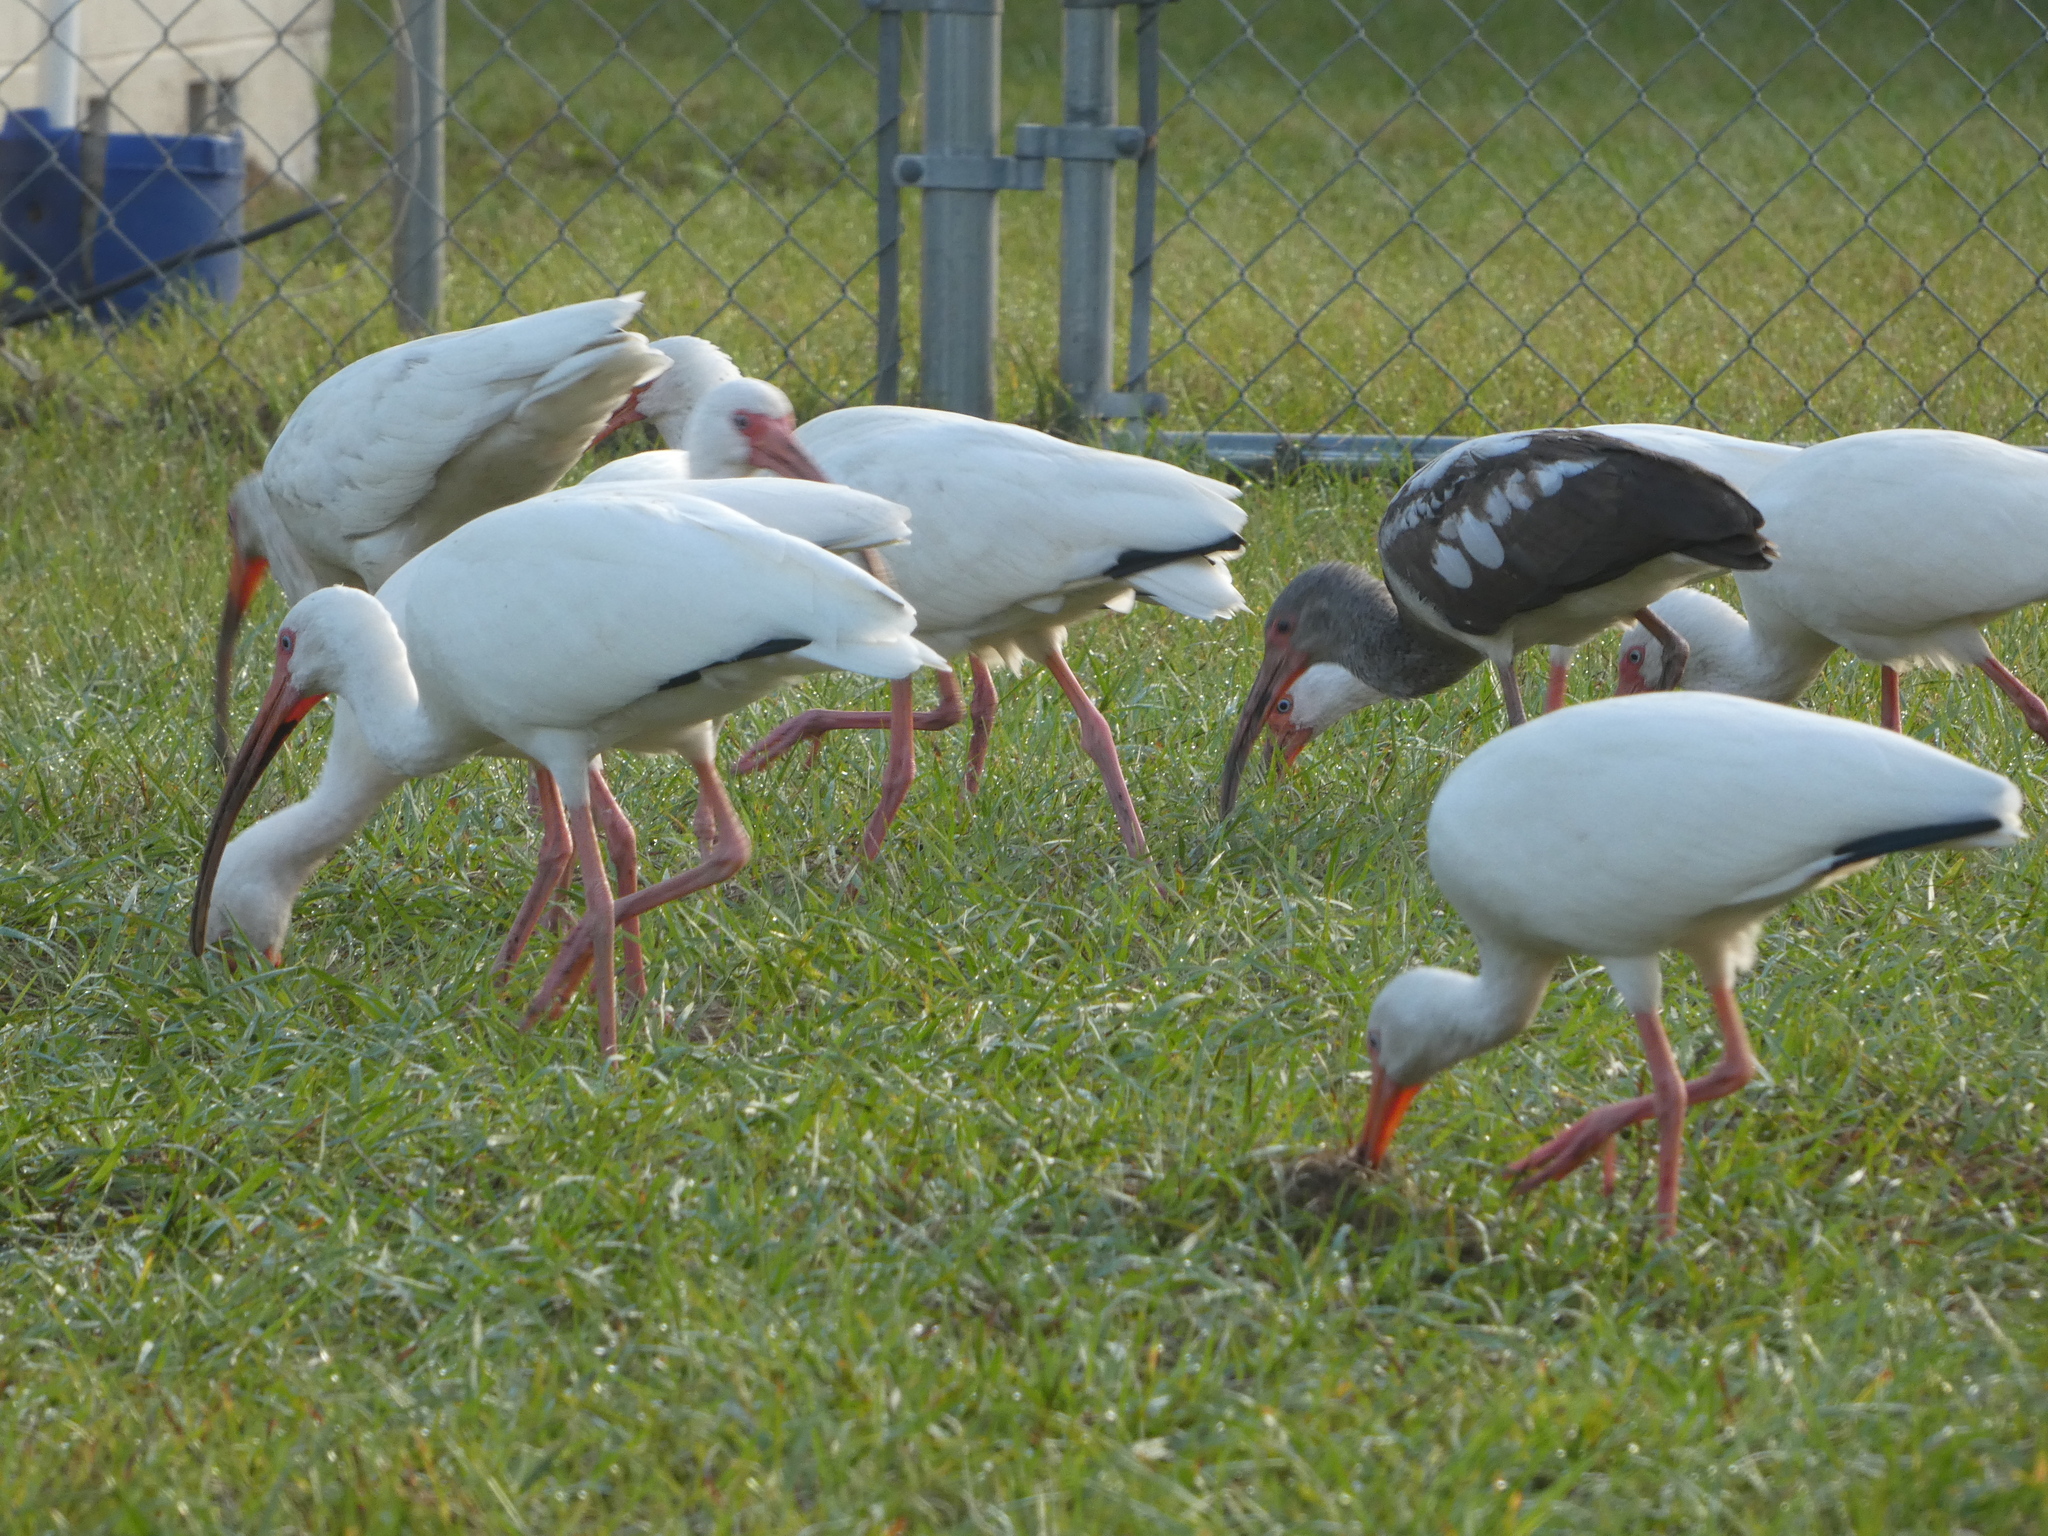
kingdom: Animalia
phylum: Chordata
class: Aves
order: Pelecaniformes
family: Threskiornithidae
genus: Eudocimus
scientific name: Eudocimus albus
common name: White ibis
